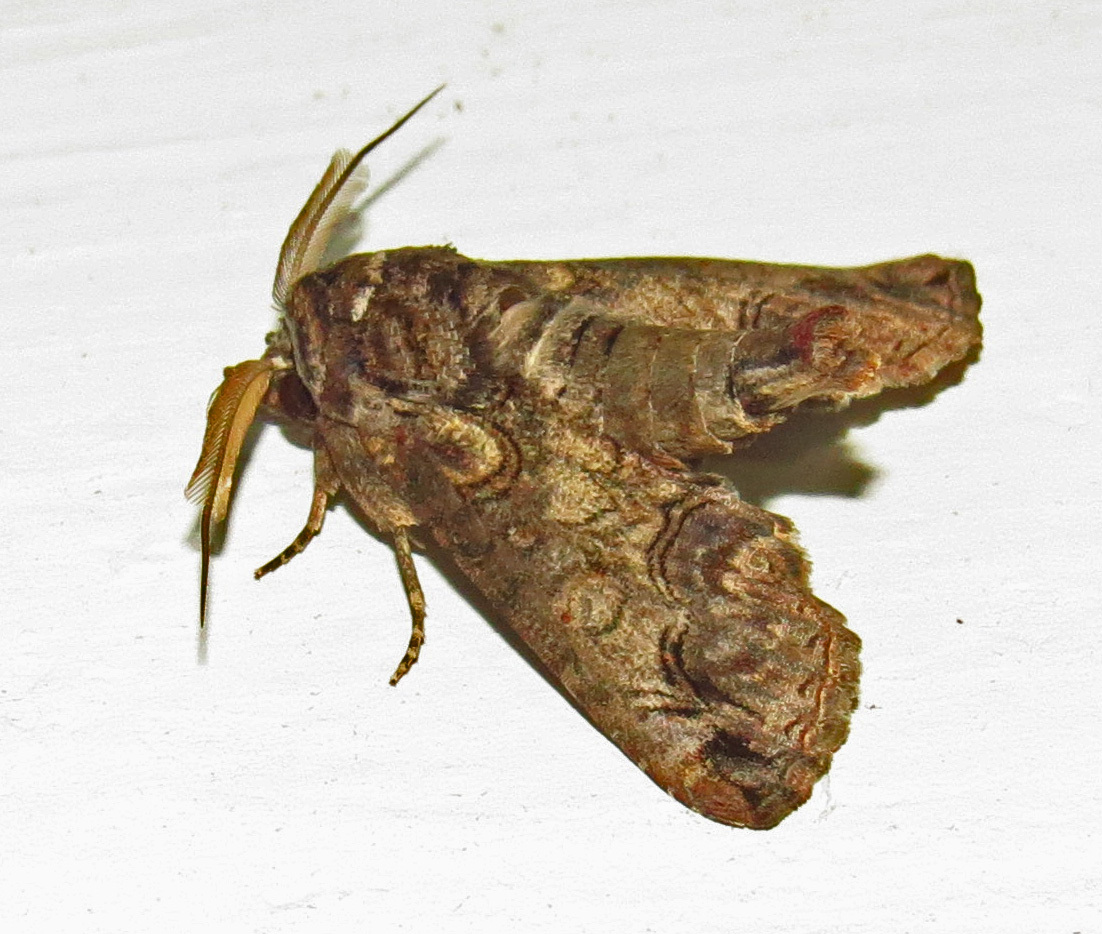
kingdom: Animalia
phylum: Arthropoda
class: Insecta
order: Lepidoptera
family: Euteliidae
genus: Paectes
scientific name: Paectes abrostoloides
